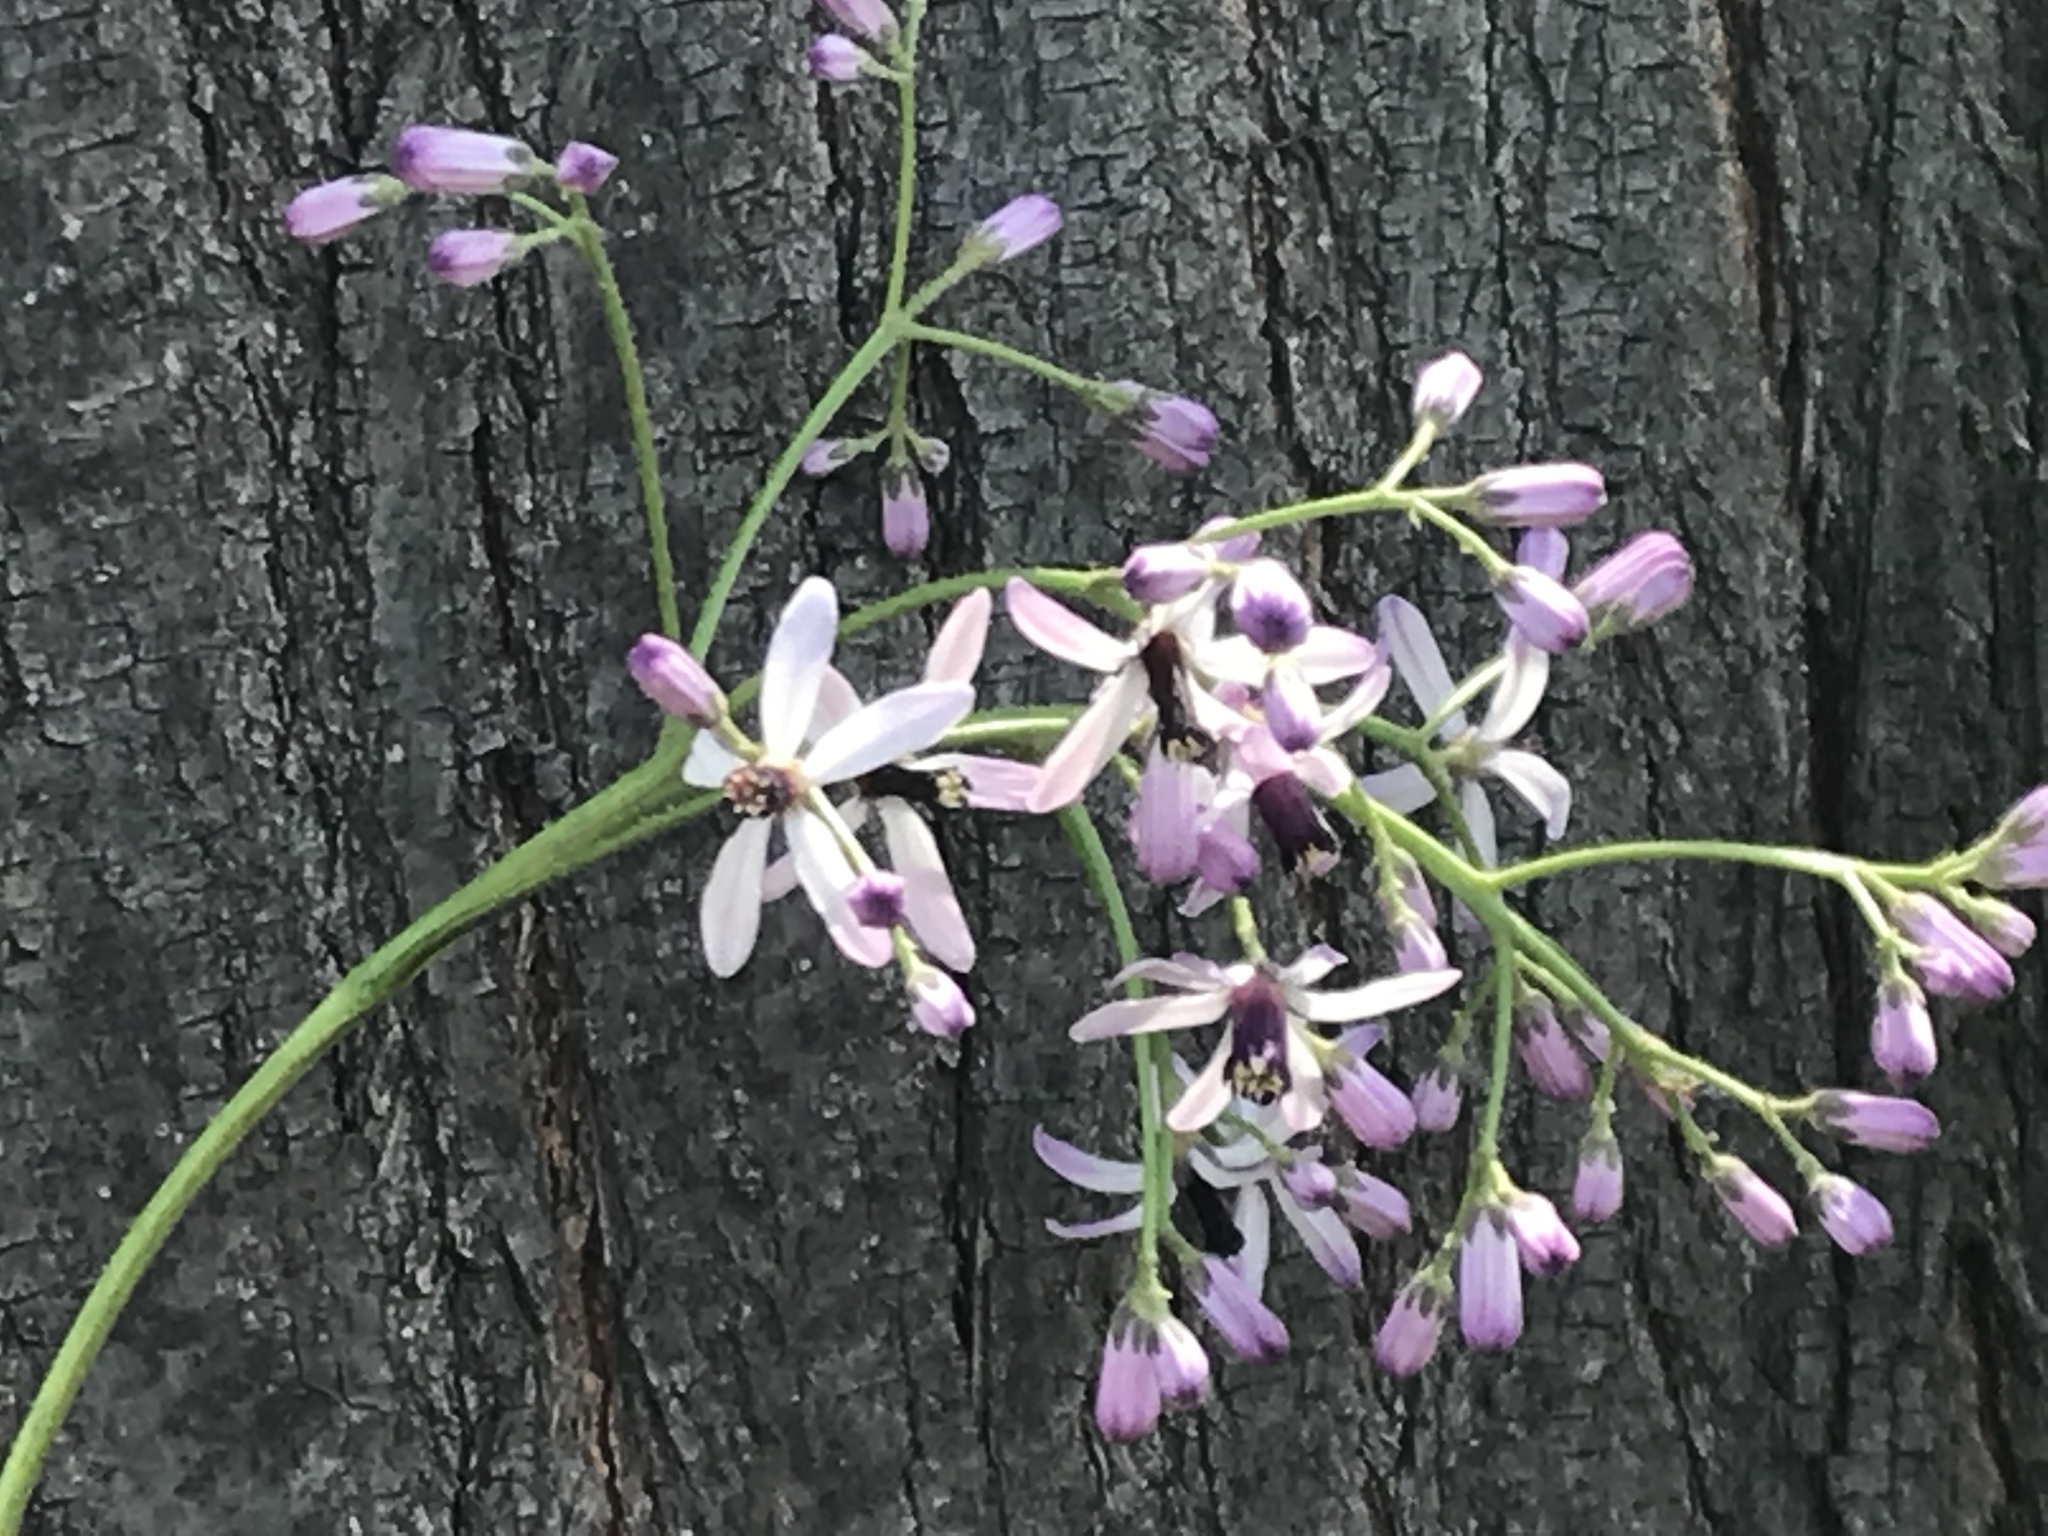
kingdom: Plantae
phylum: Tracheophyta
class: Magnoliopsida
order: Sapindales
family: Meliaceae
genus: Melia
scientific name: Melia azedarach
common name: Chinaberrytree
